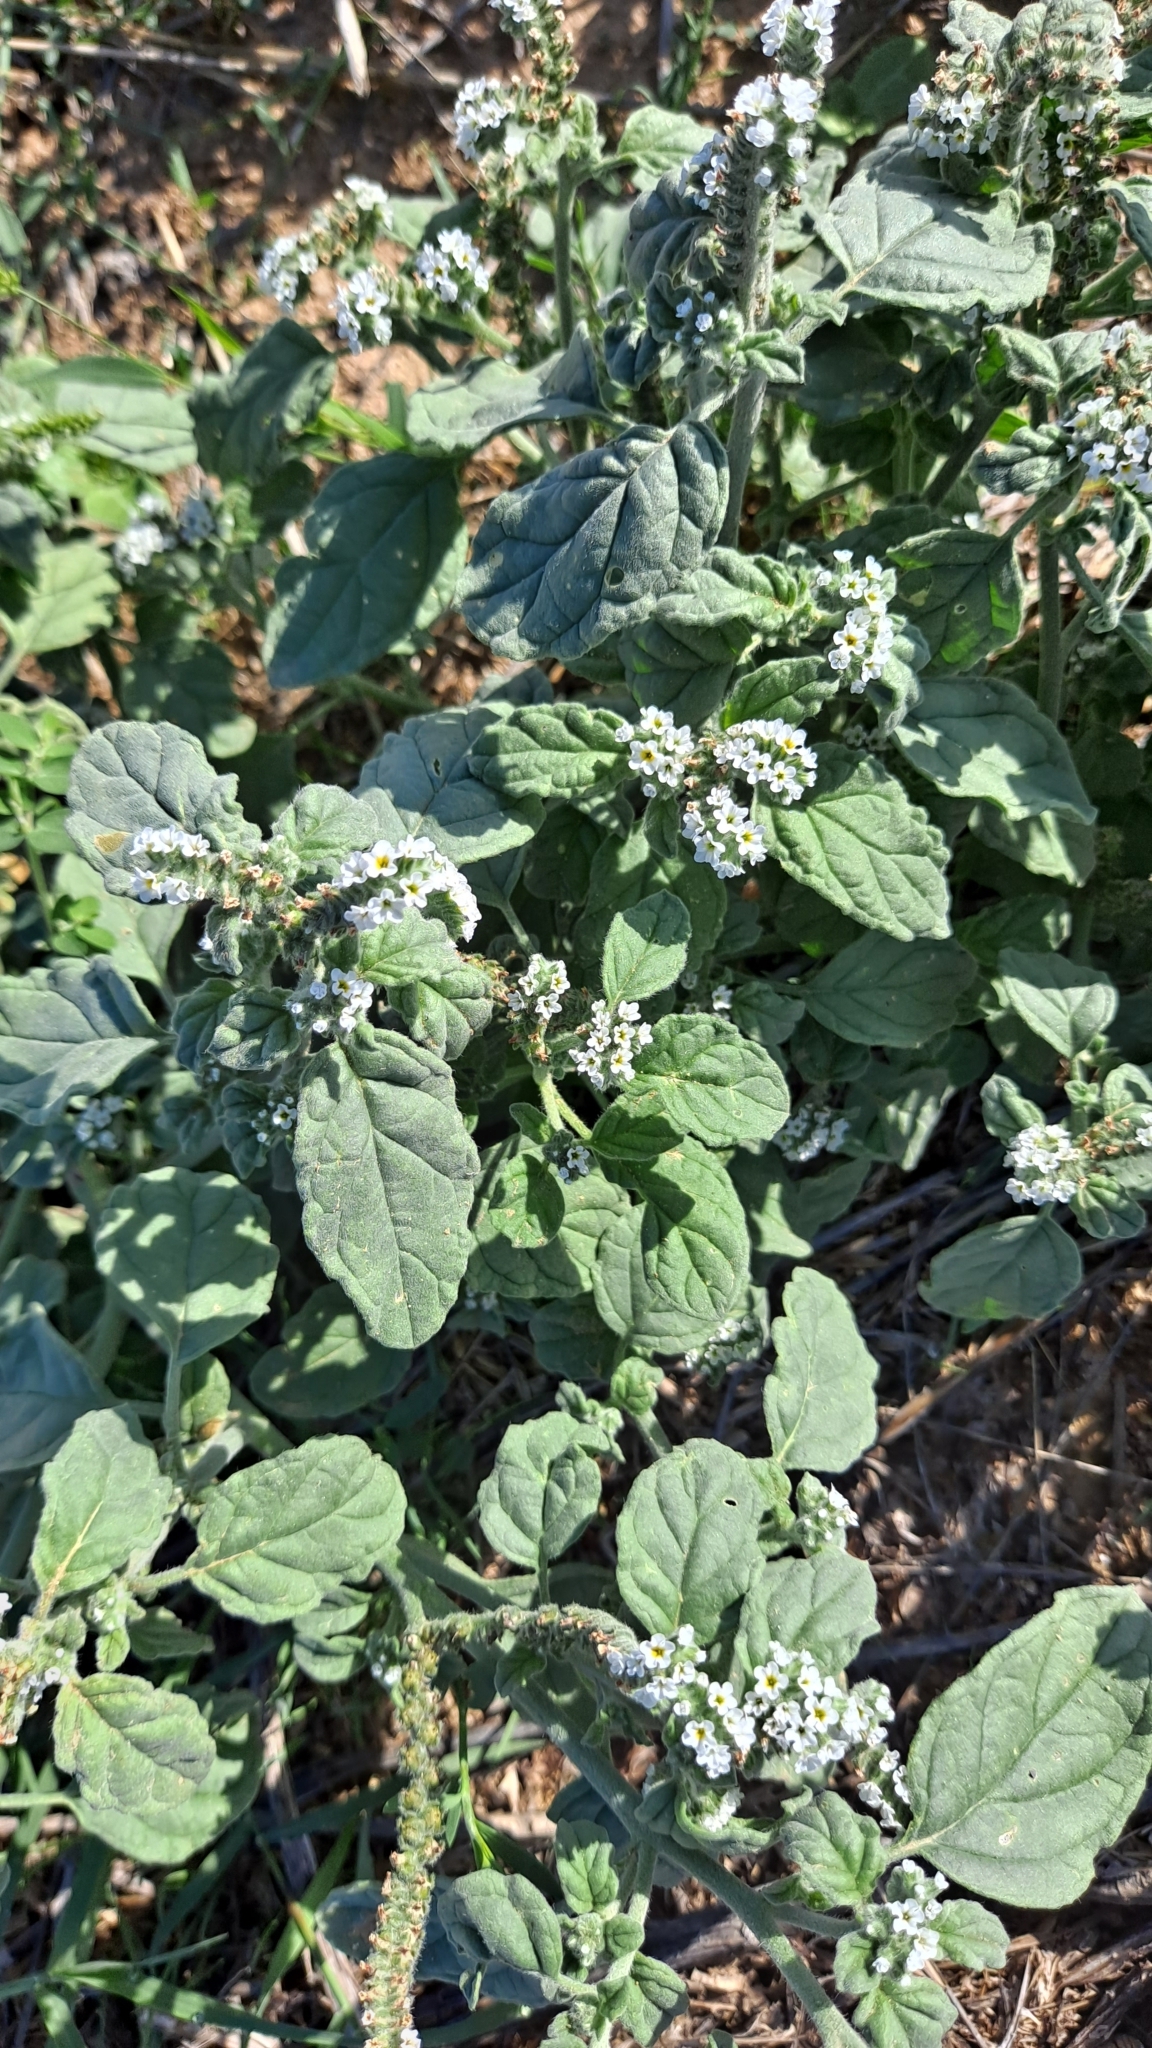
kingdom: Plantae
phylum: Tracheophyta
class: Magnoliopsida
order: Boraginales
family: Heliotropiaceae
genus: Heliotropium
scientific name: Heliotropium europaeum
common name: European heliotrope
